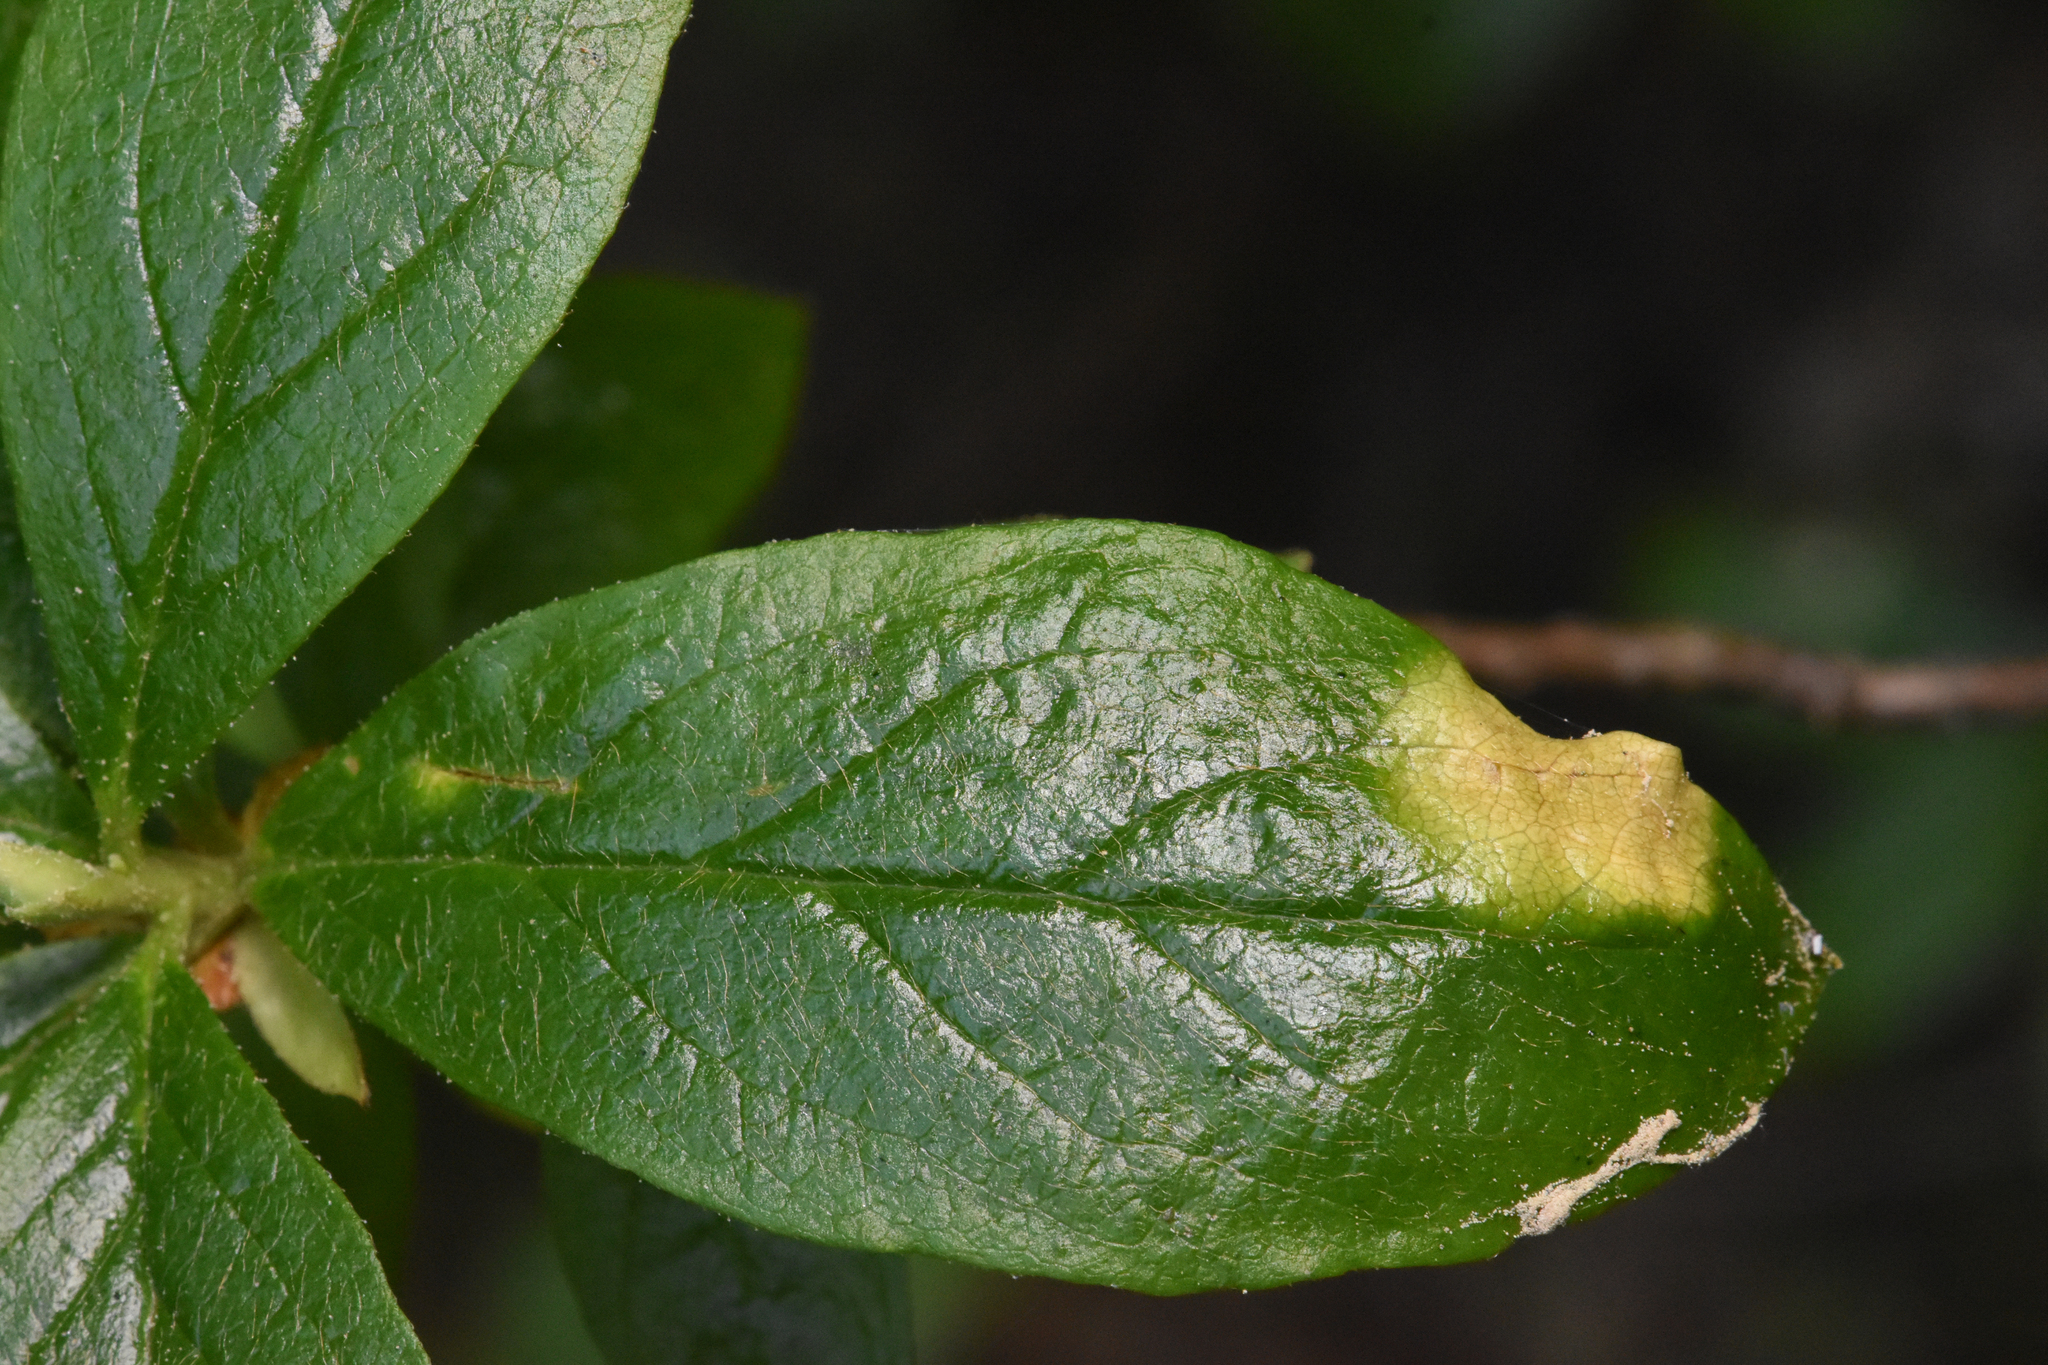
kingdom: Fungi
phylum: Basidiomycota
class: Exobasidiomycetes
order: Exobasidiales
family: Exobasidiaceae
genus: Exobasidium
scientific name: Exobasidium burtii
